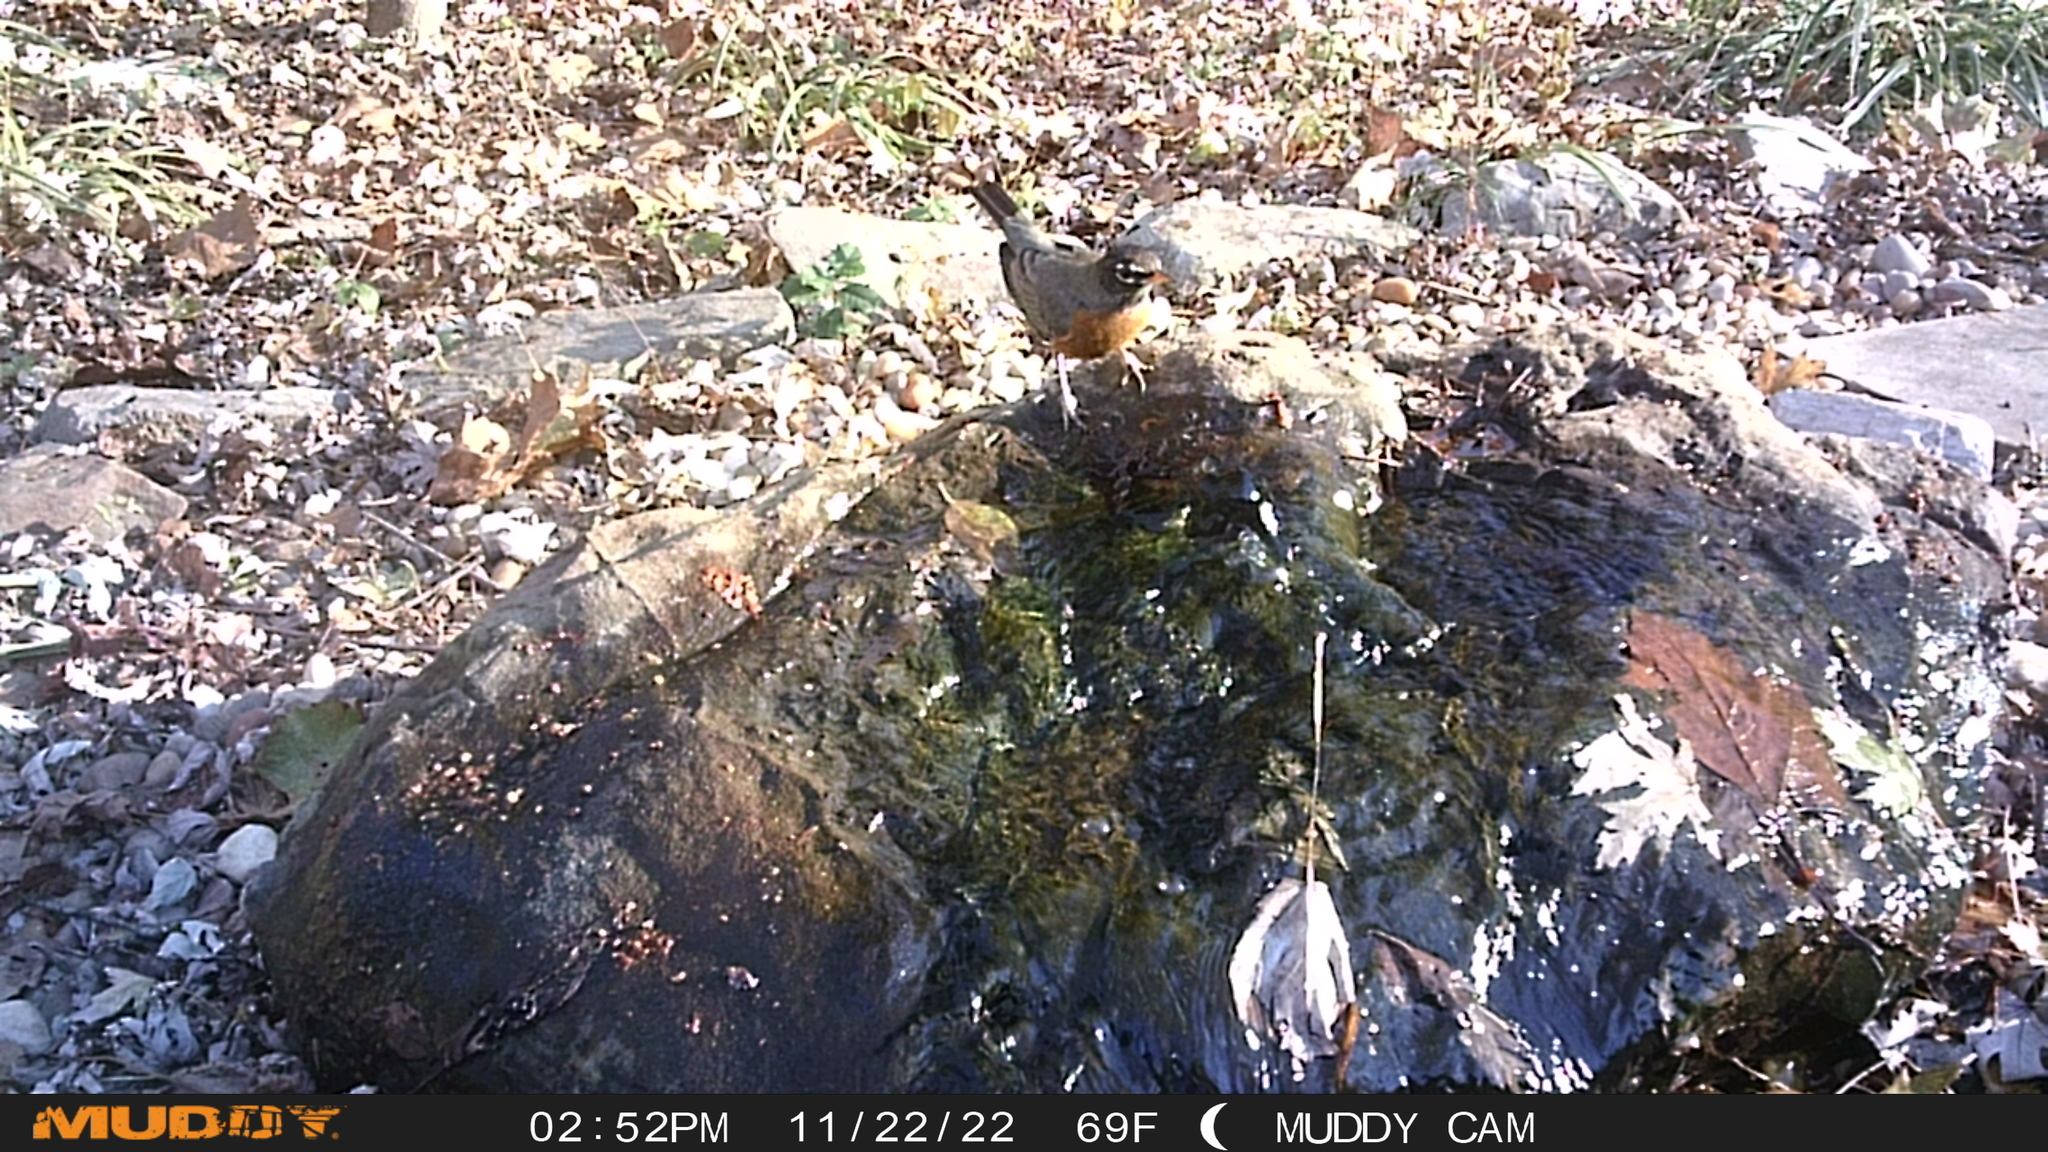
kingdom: Animalia
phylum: Chordata
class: Aves
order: Passeriformes
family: Turdidae
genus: Turdus
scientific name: Turdus migratorius
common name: American robin
